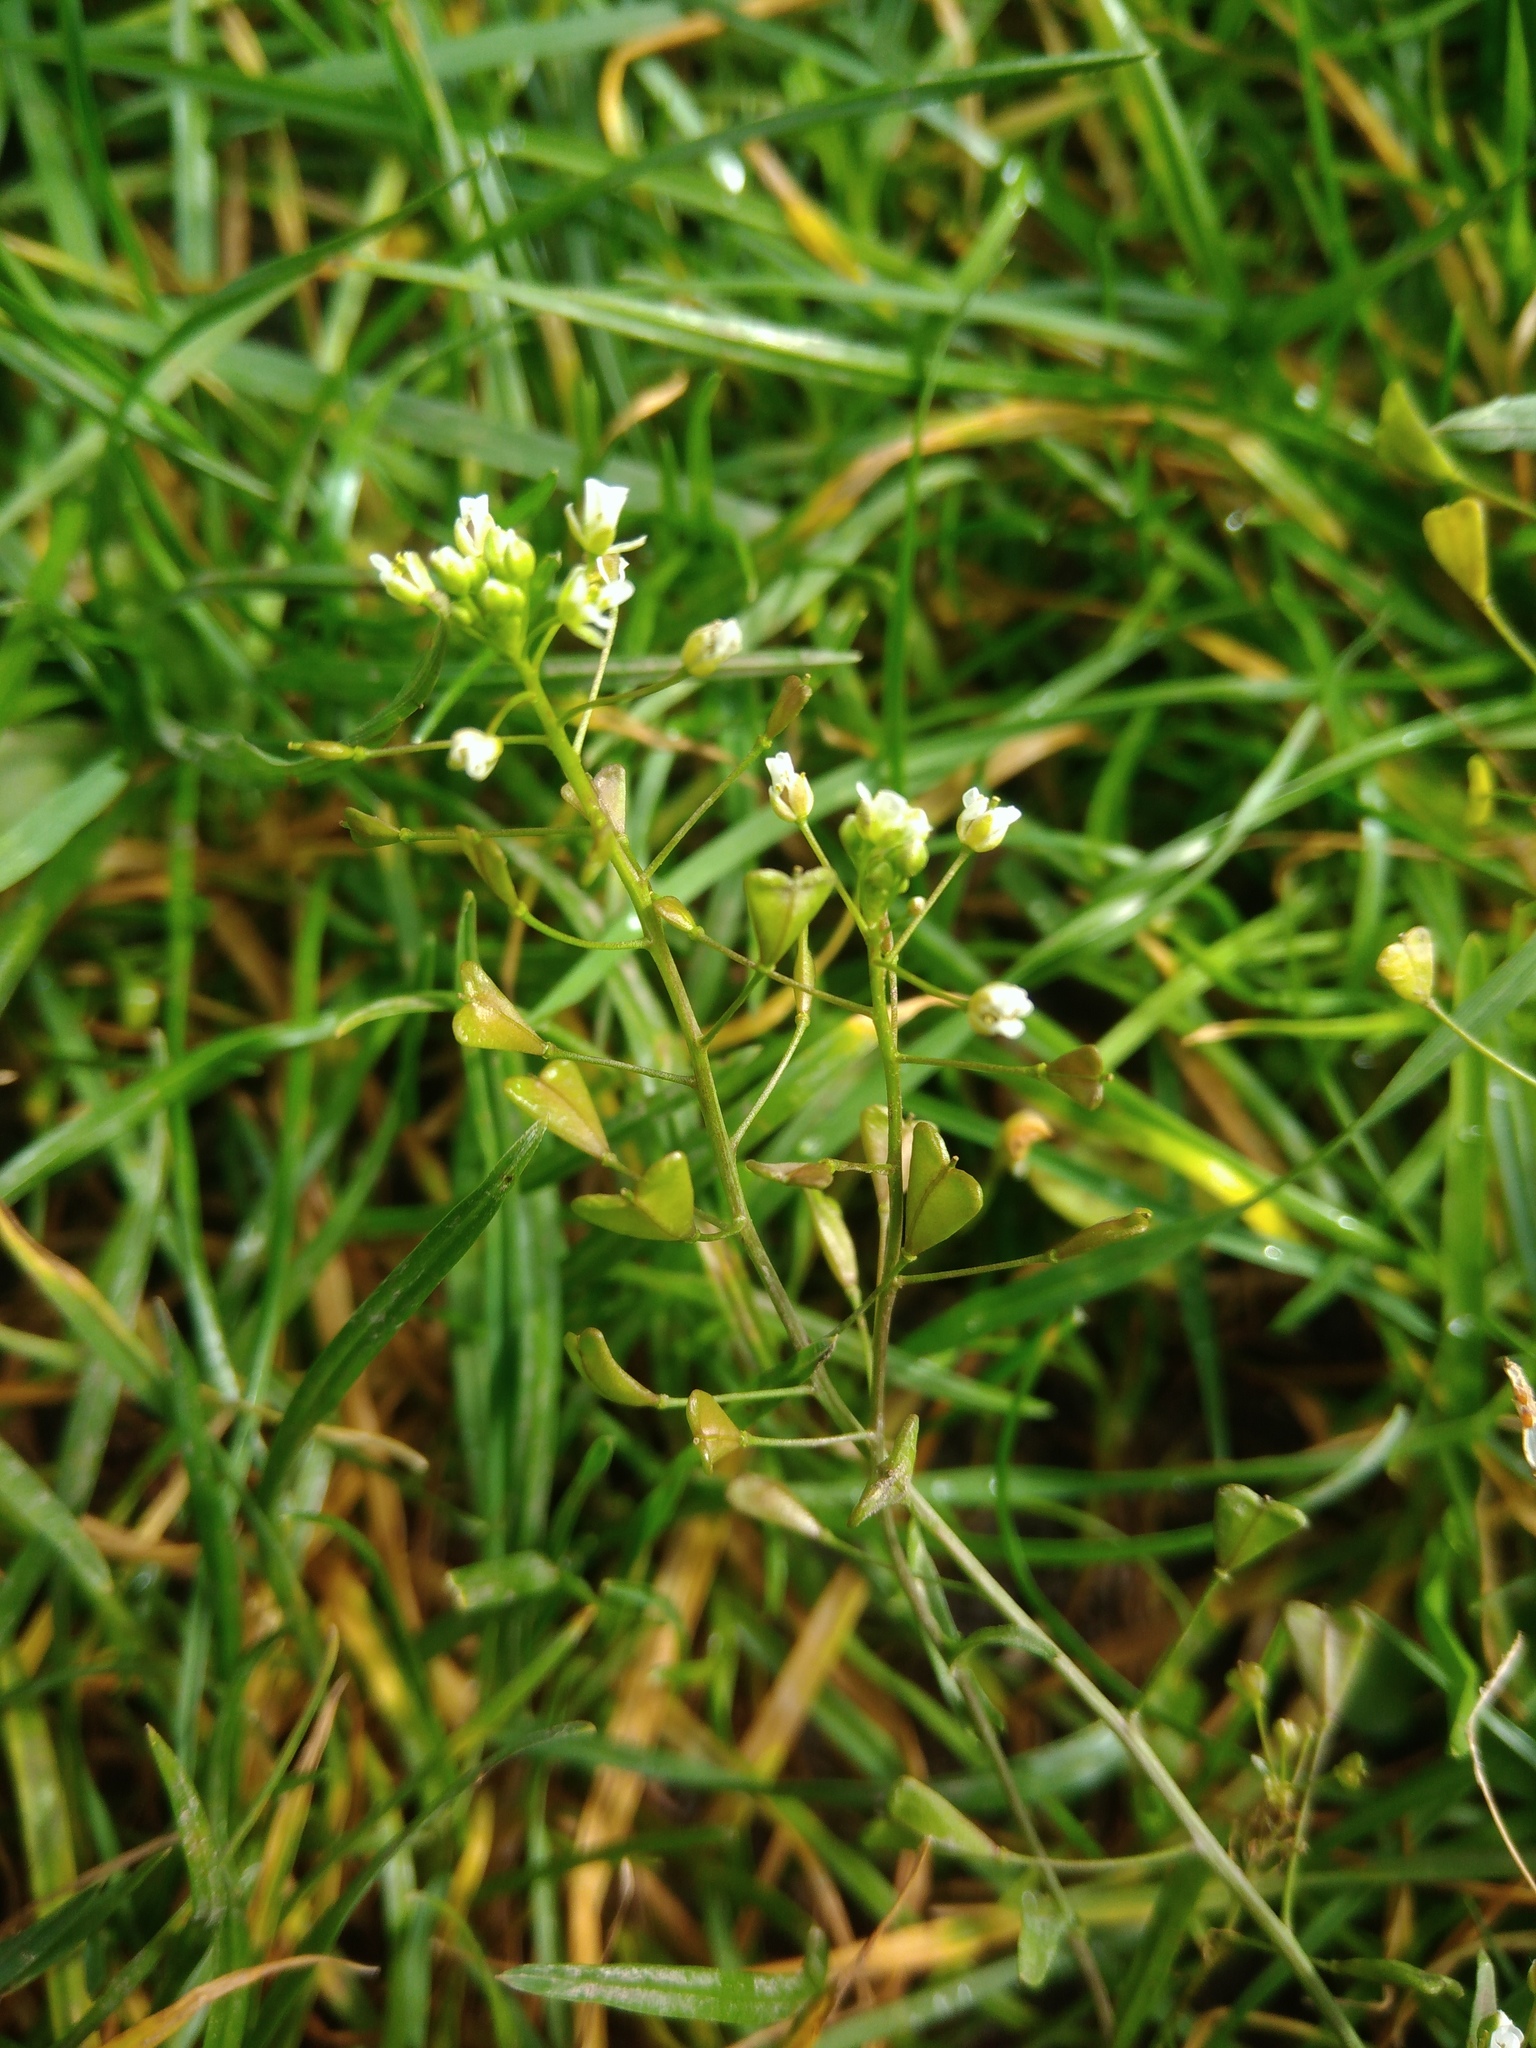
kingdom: Plantae
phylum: Tracheophyta
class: Magnoliopsida
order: Brassicales
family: Brassicaceae
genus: Capsella
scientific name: Capsella bursa-pastoris
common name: Shepherd's purse
